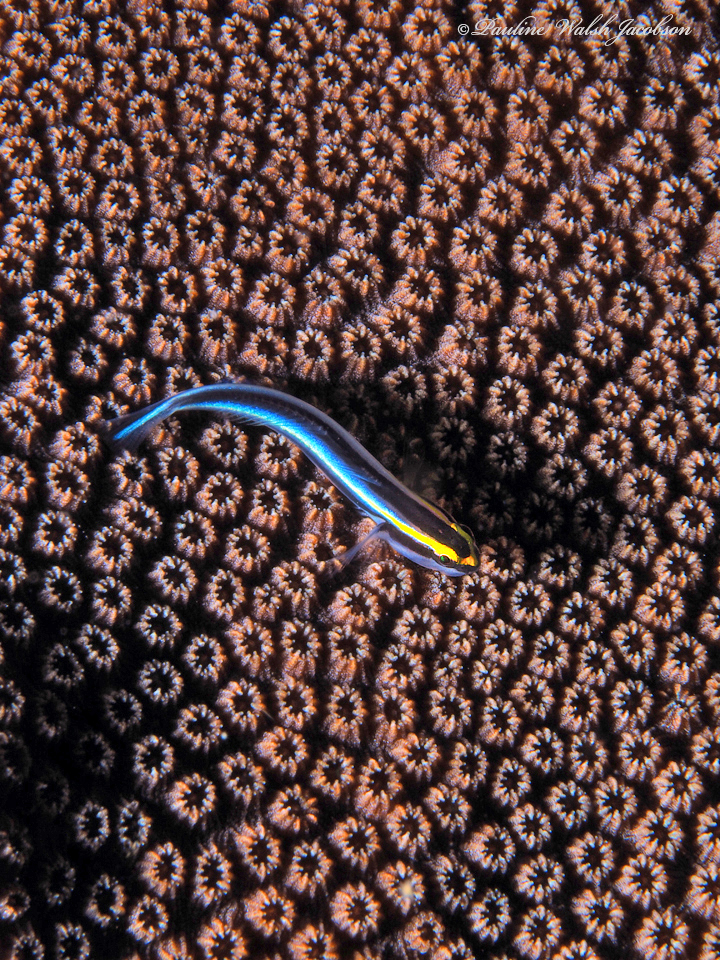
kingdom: Animalia
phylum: Chordata
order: Perciformes
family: Gobiidae
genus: Elacatinus
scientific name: Elacatinus evelynae
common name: Sharknose goby
